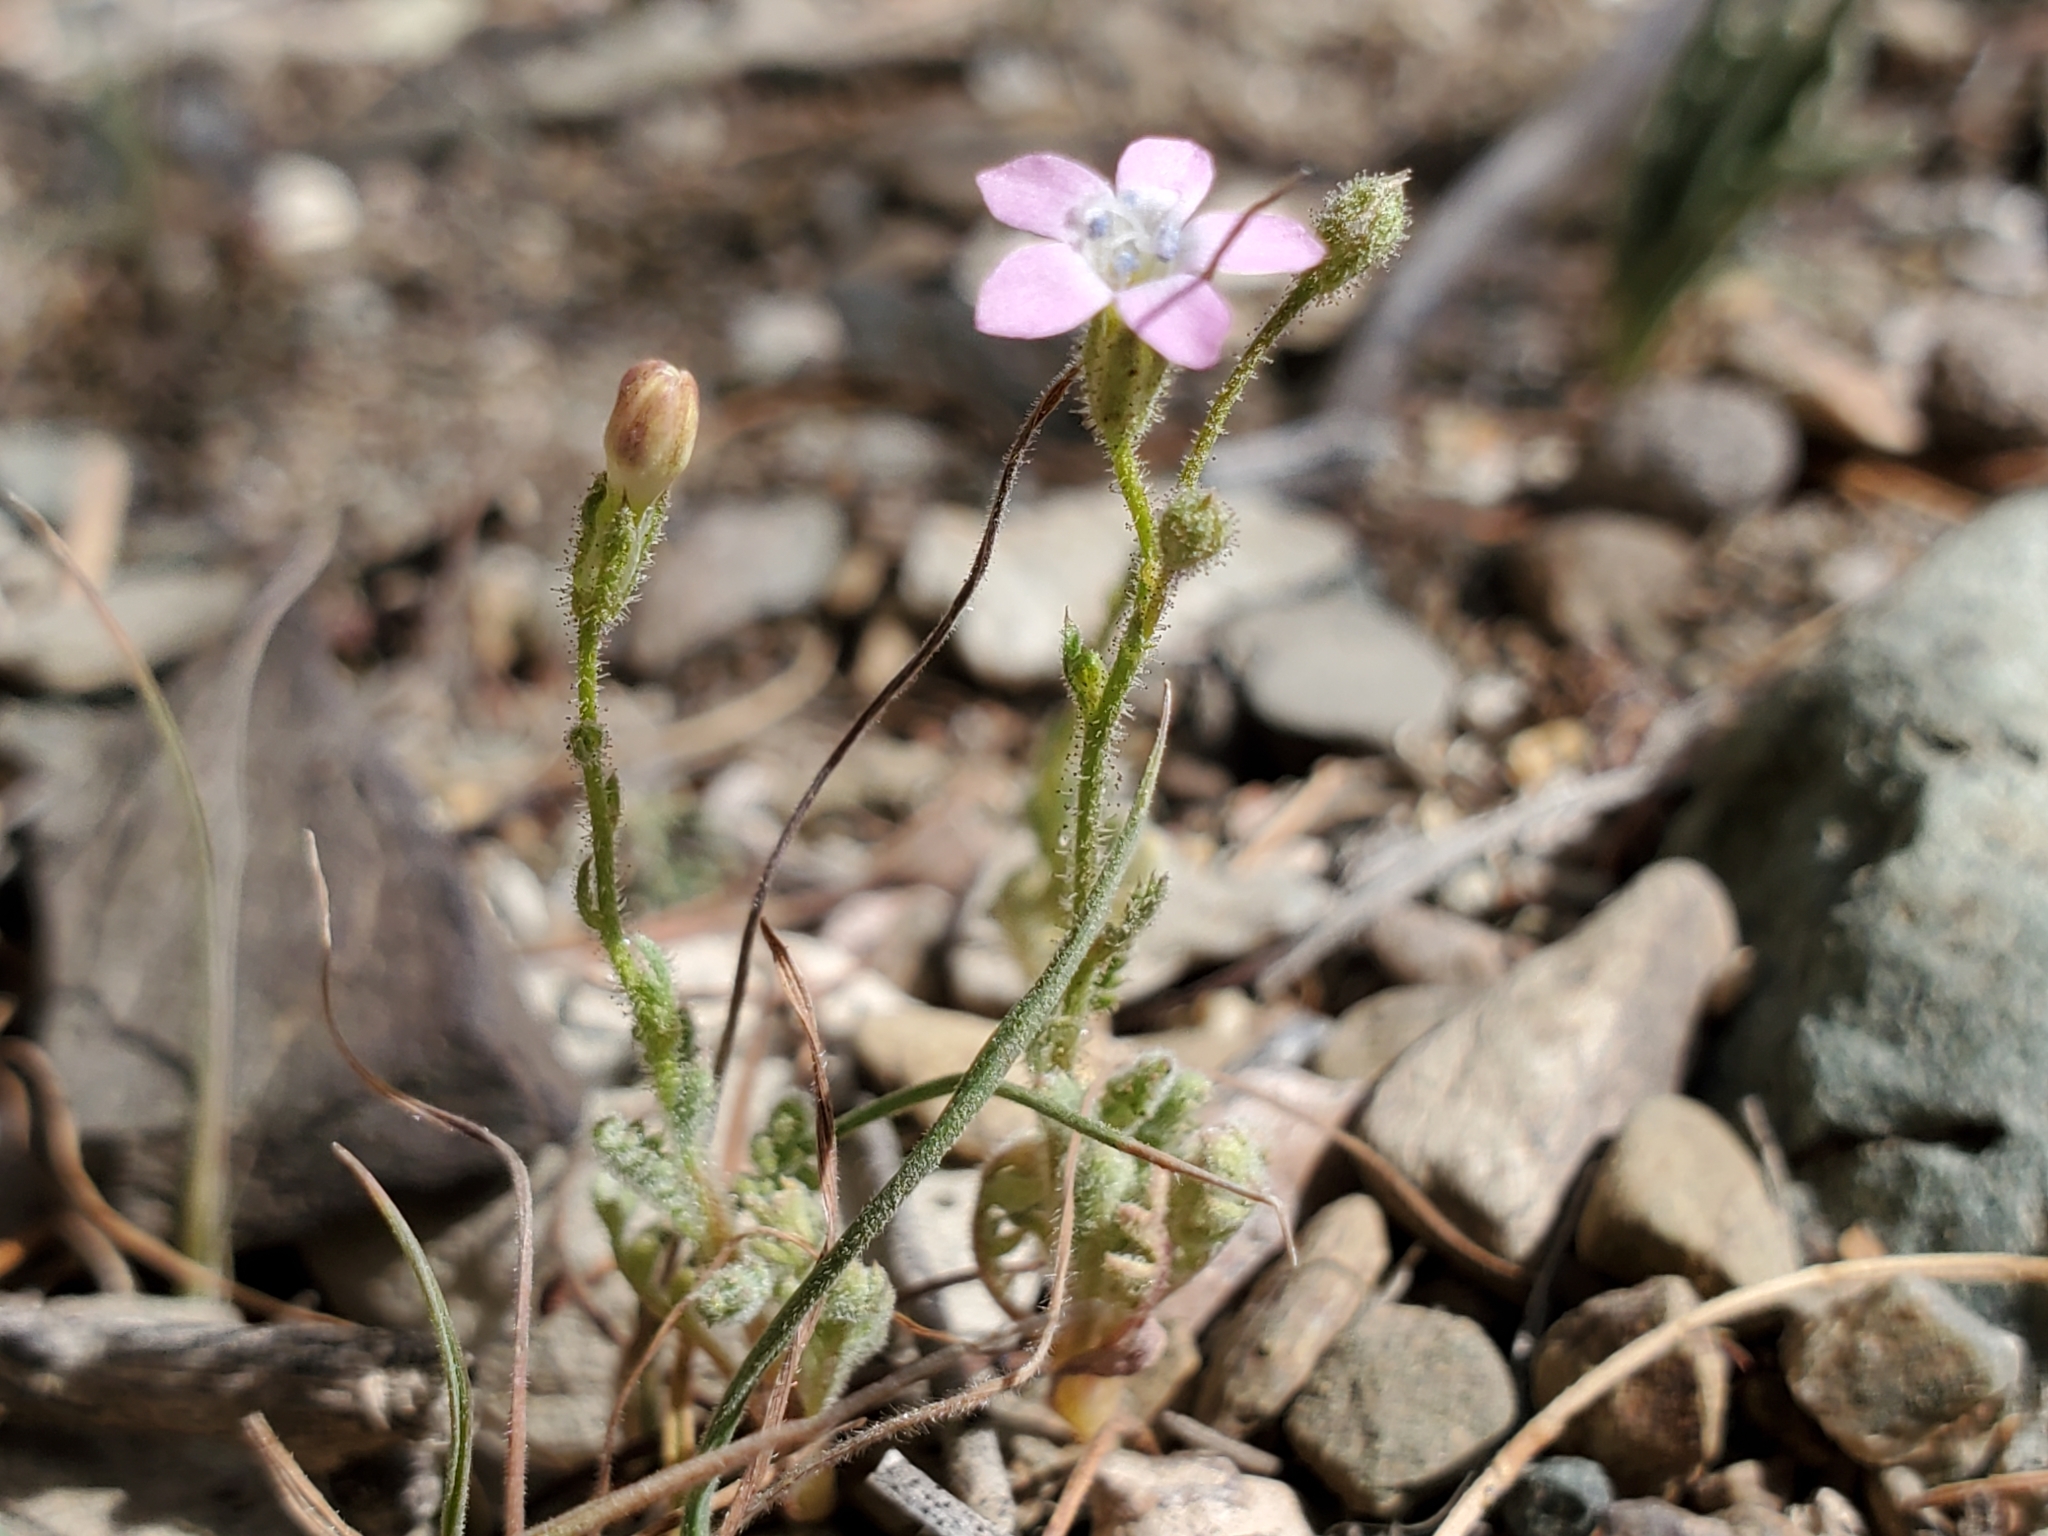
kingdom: Plantae
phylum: Tracheophyta
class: Magnoliopsida
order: Ericales
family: Polemoniaceae
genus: Gilia
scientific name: Gilia stellata
